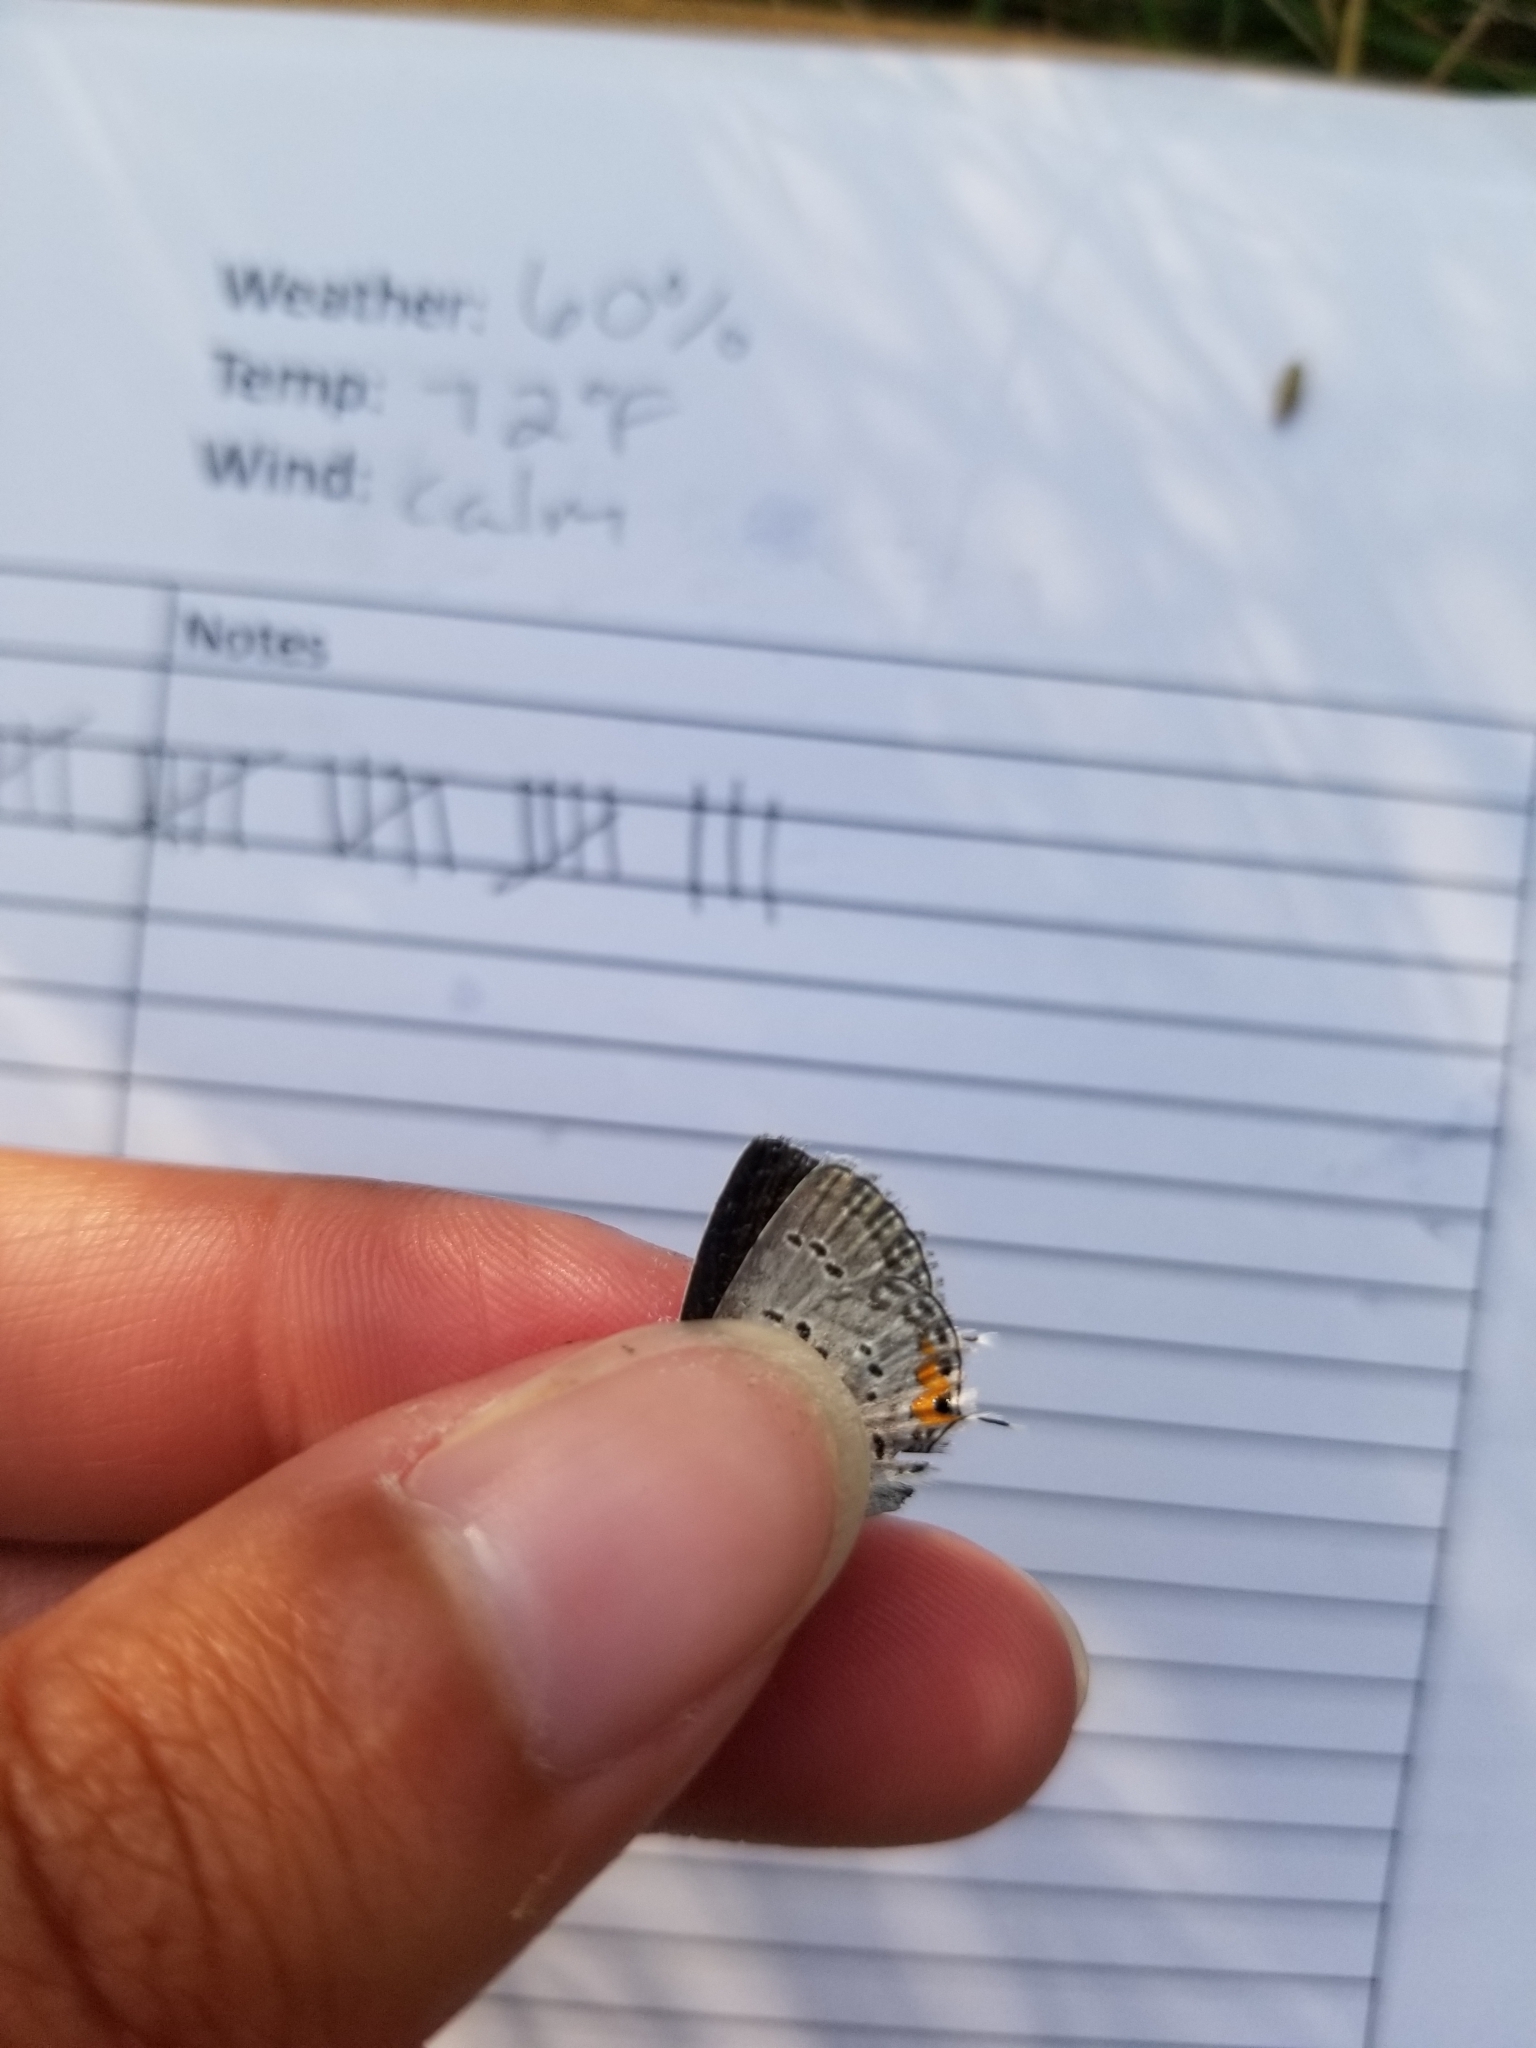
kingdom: Animalia
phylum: Arthropoda
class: Insecta
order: Lepidoptera
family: Lycaenidae
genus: Elkalyce
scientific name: Elkalyce comyntas
